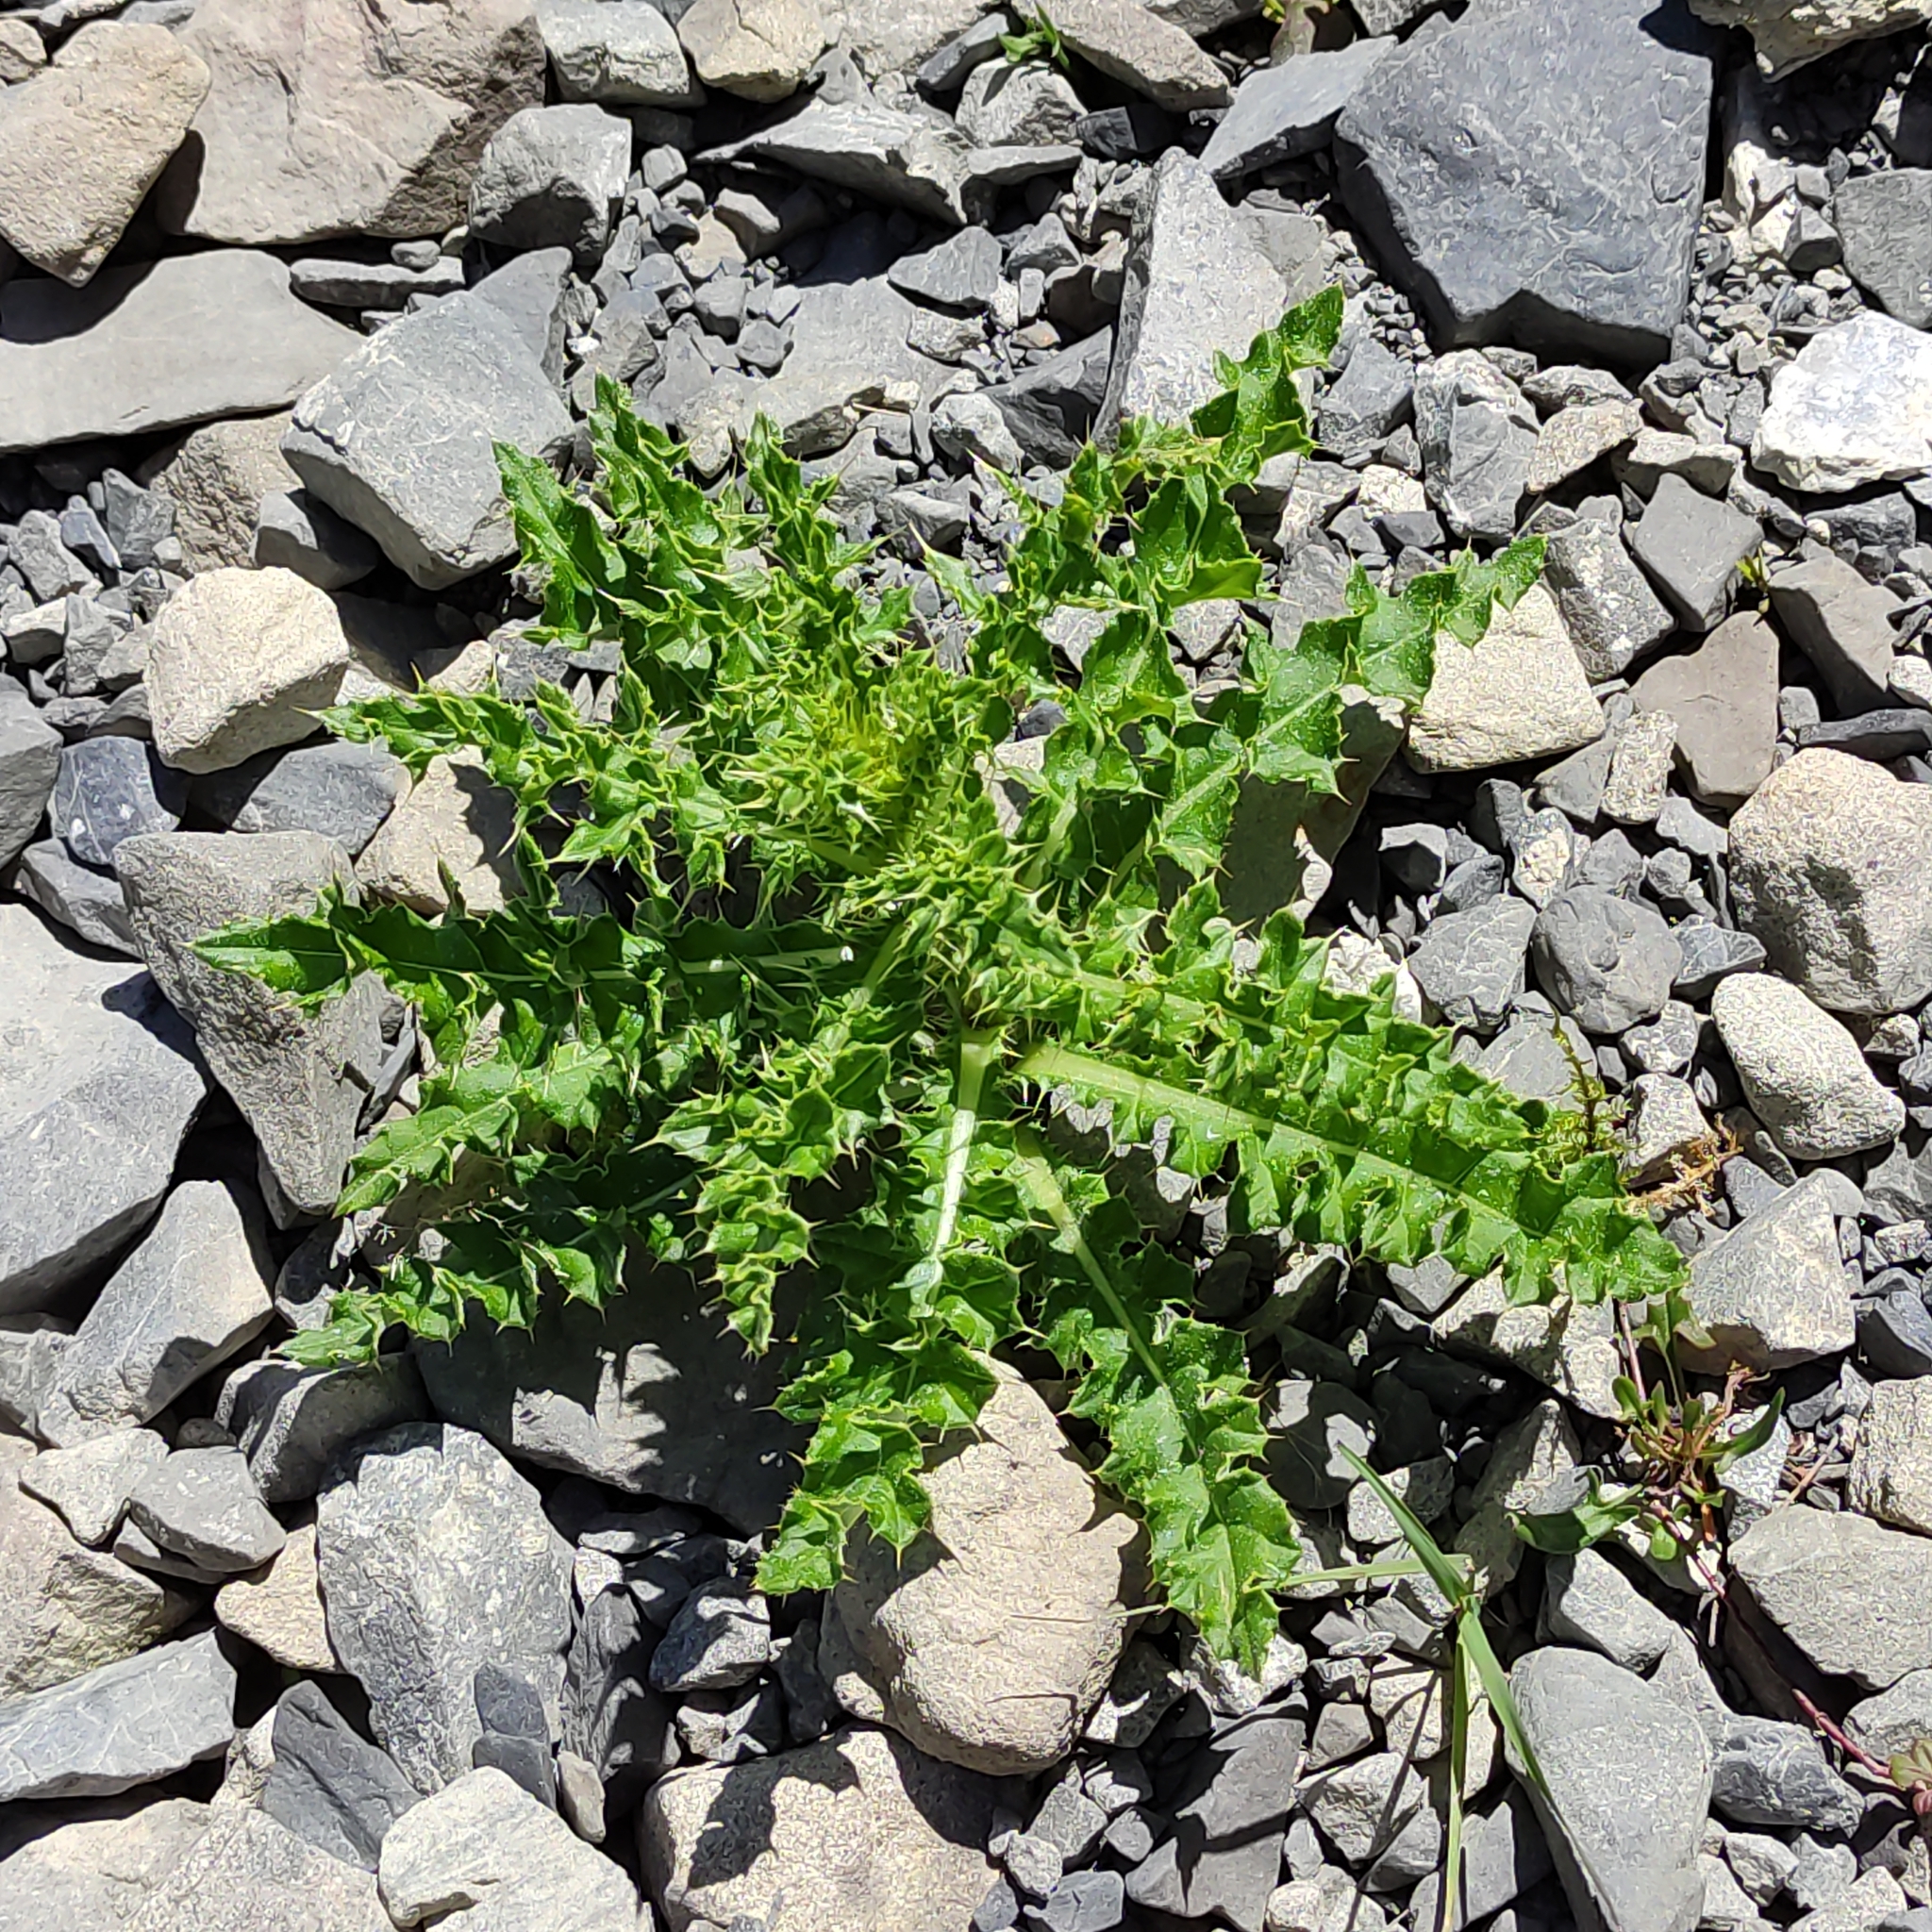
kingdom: Plantae
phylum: Tracheophyta
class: Magnoliopsida
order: Asterales
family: Asteraceae
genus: Cirsium
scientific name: Cirsium arvense
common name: Creeping thistle
